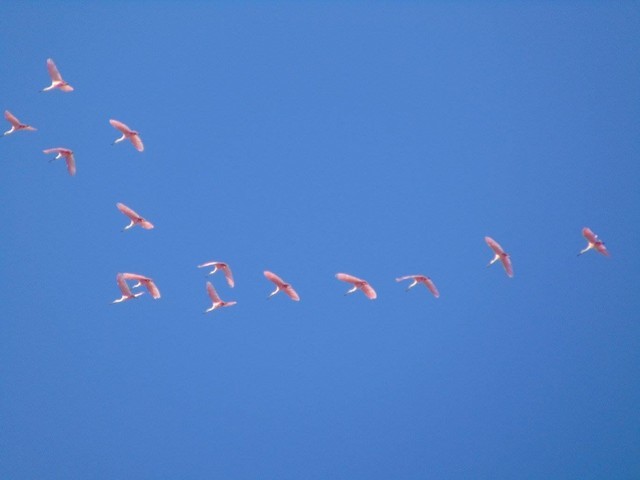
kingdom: Animalia
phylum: Chordata
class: Aves
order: Pelecaniformes
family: Threskiornithidae
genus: Platalea
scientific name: Platalea ajaja
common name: Roseate spoonbill
